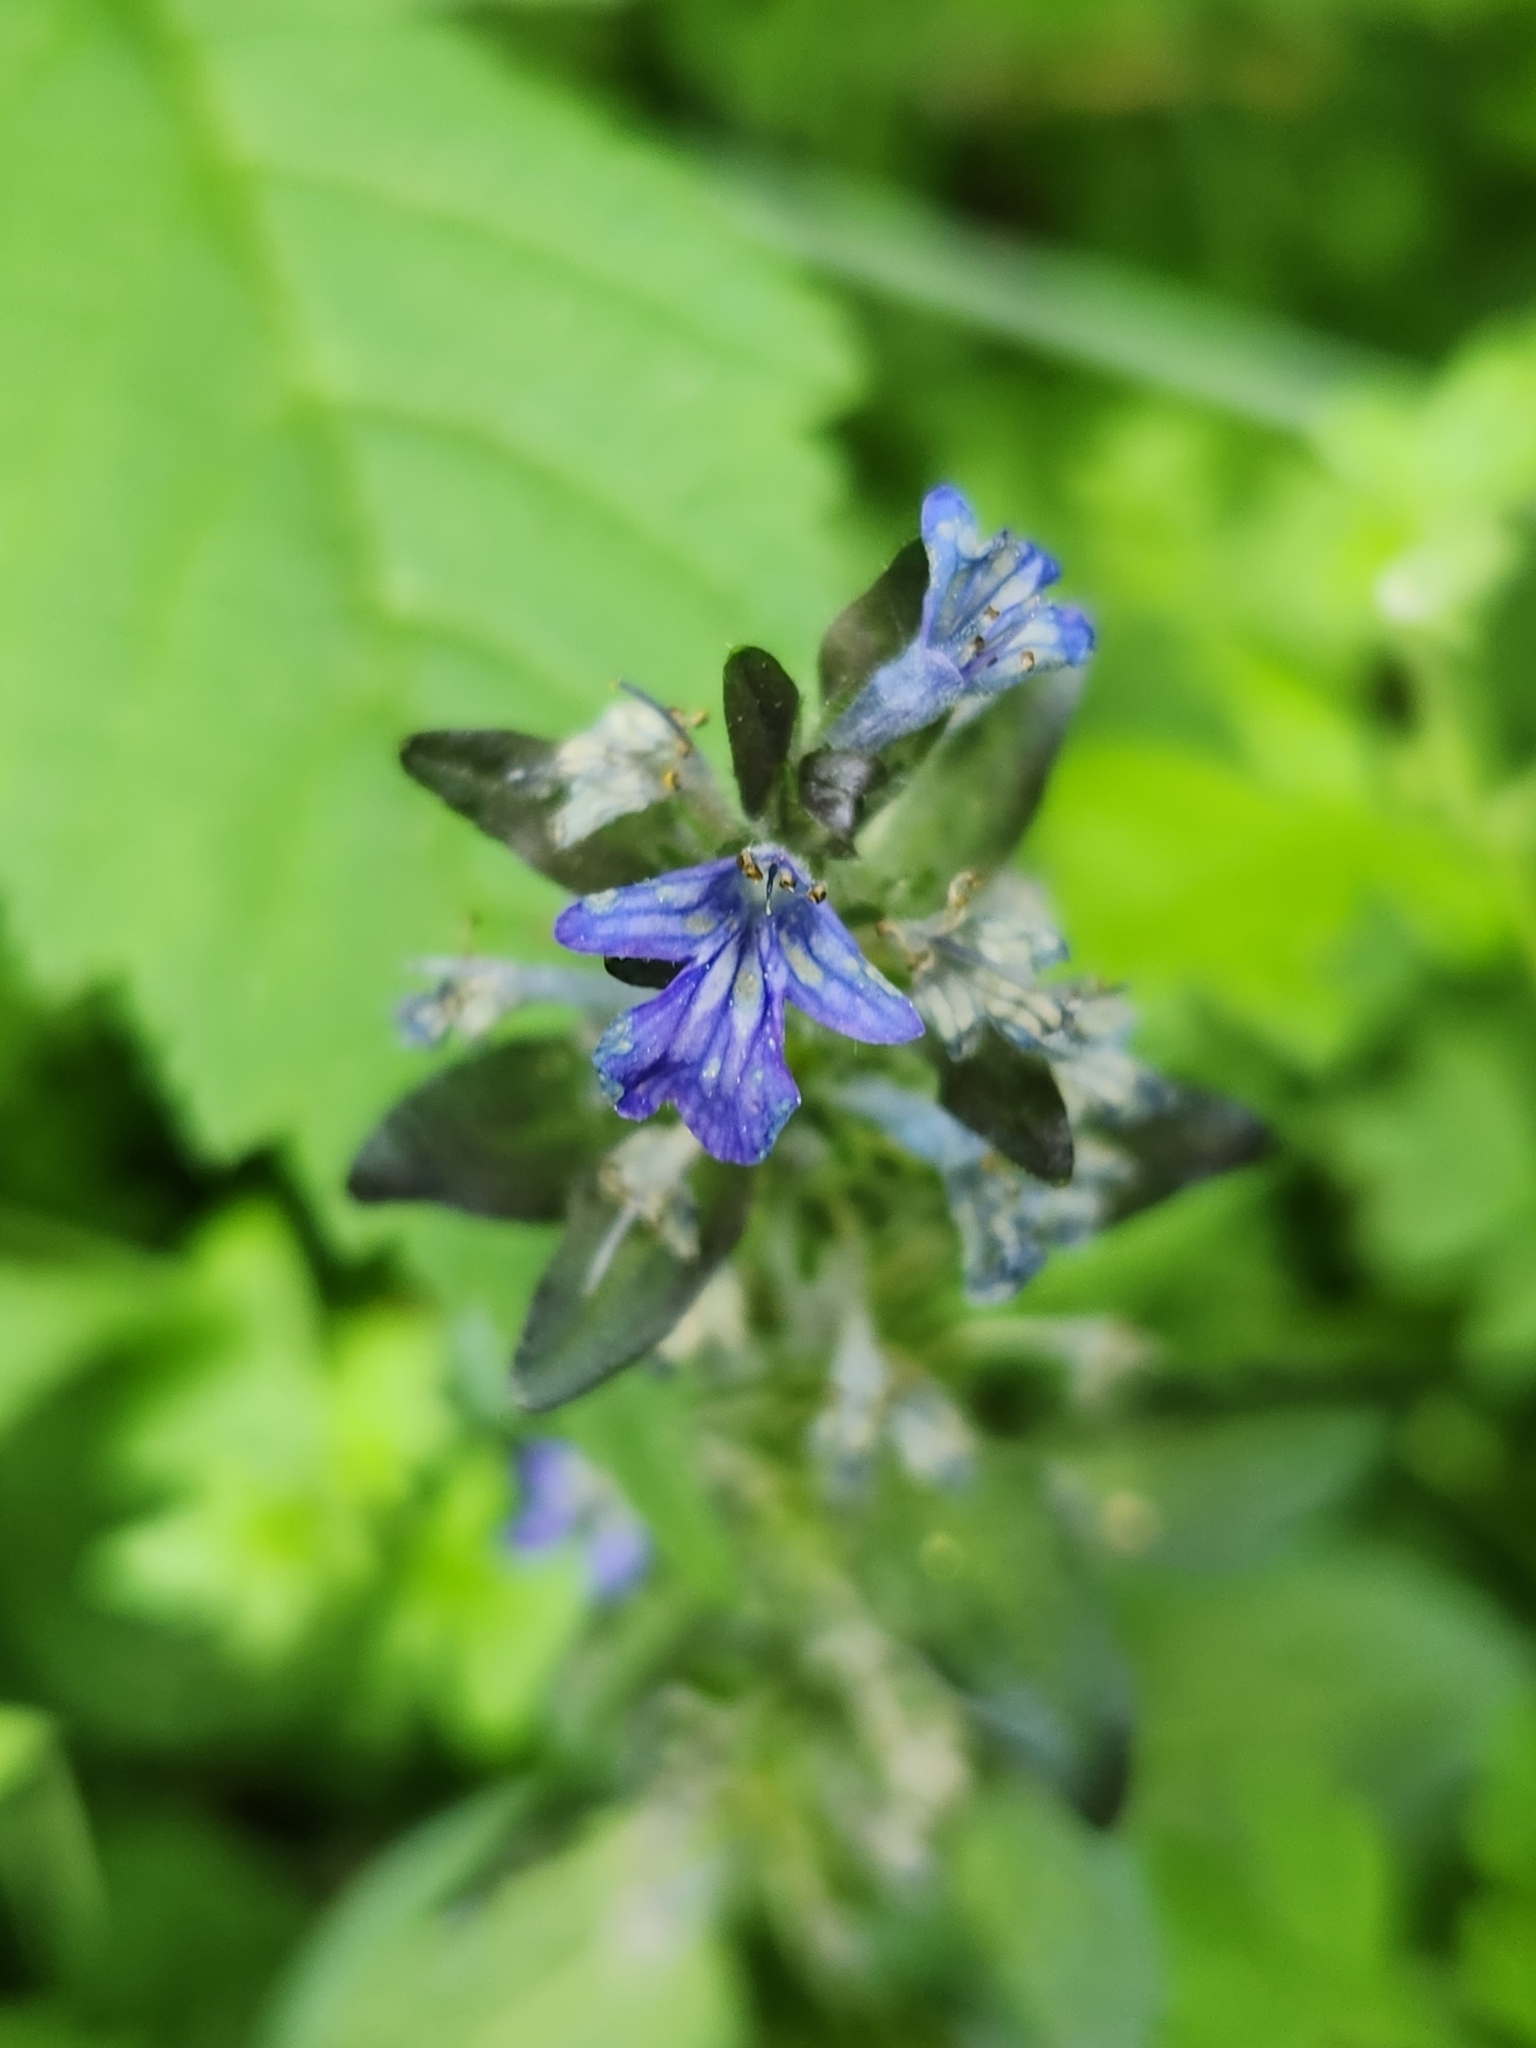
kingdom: Plantae
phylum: Tracheophyta
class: Magnoliopsida
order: Lamiales
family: Lamiaceae
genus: Ajuga
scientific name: Ajuga reptans
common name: Bugle
